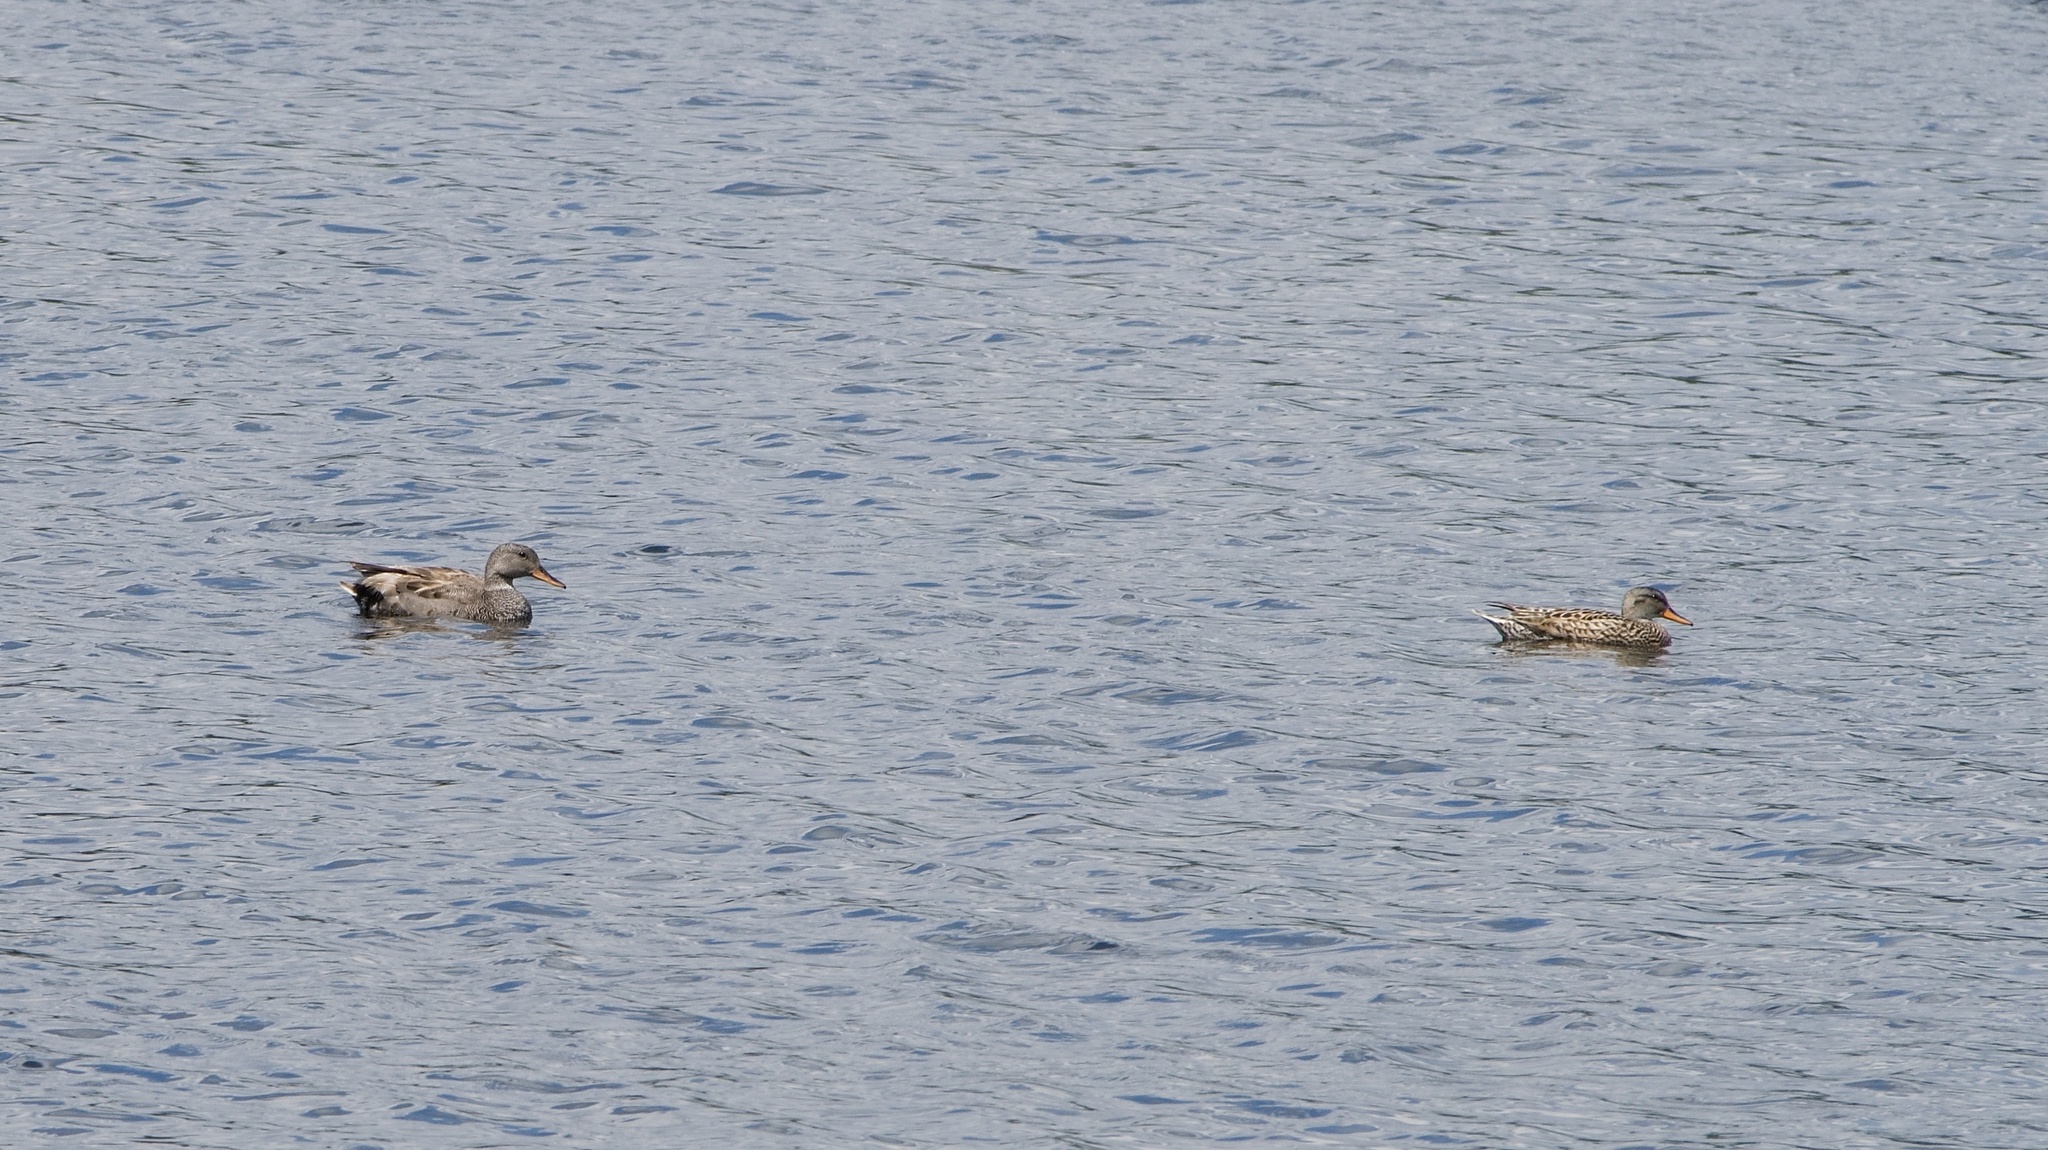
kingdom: Animalia
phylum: Chordata
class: Aves
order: Anseriformes
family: Anatidae
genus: Mareca
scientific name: Mareca strepera
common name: Gadwall
